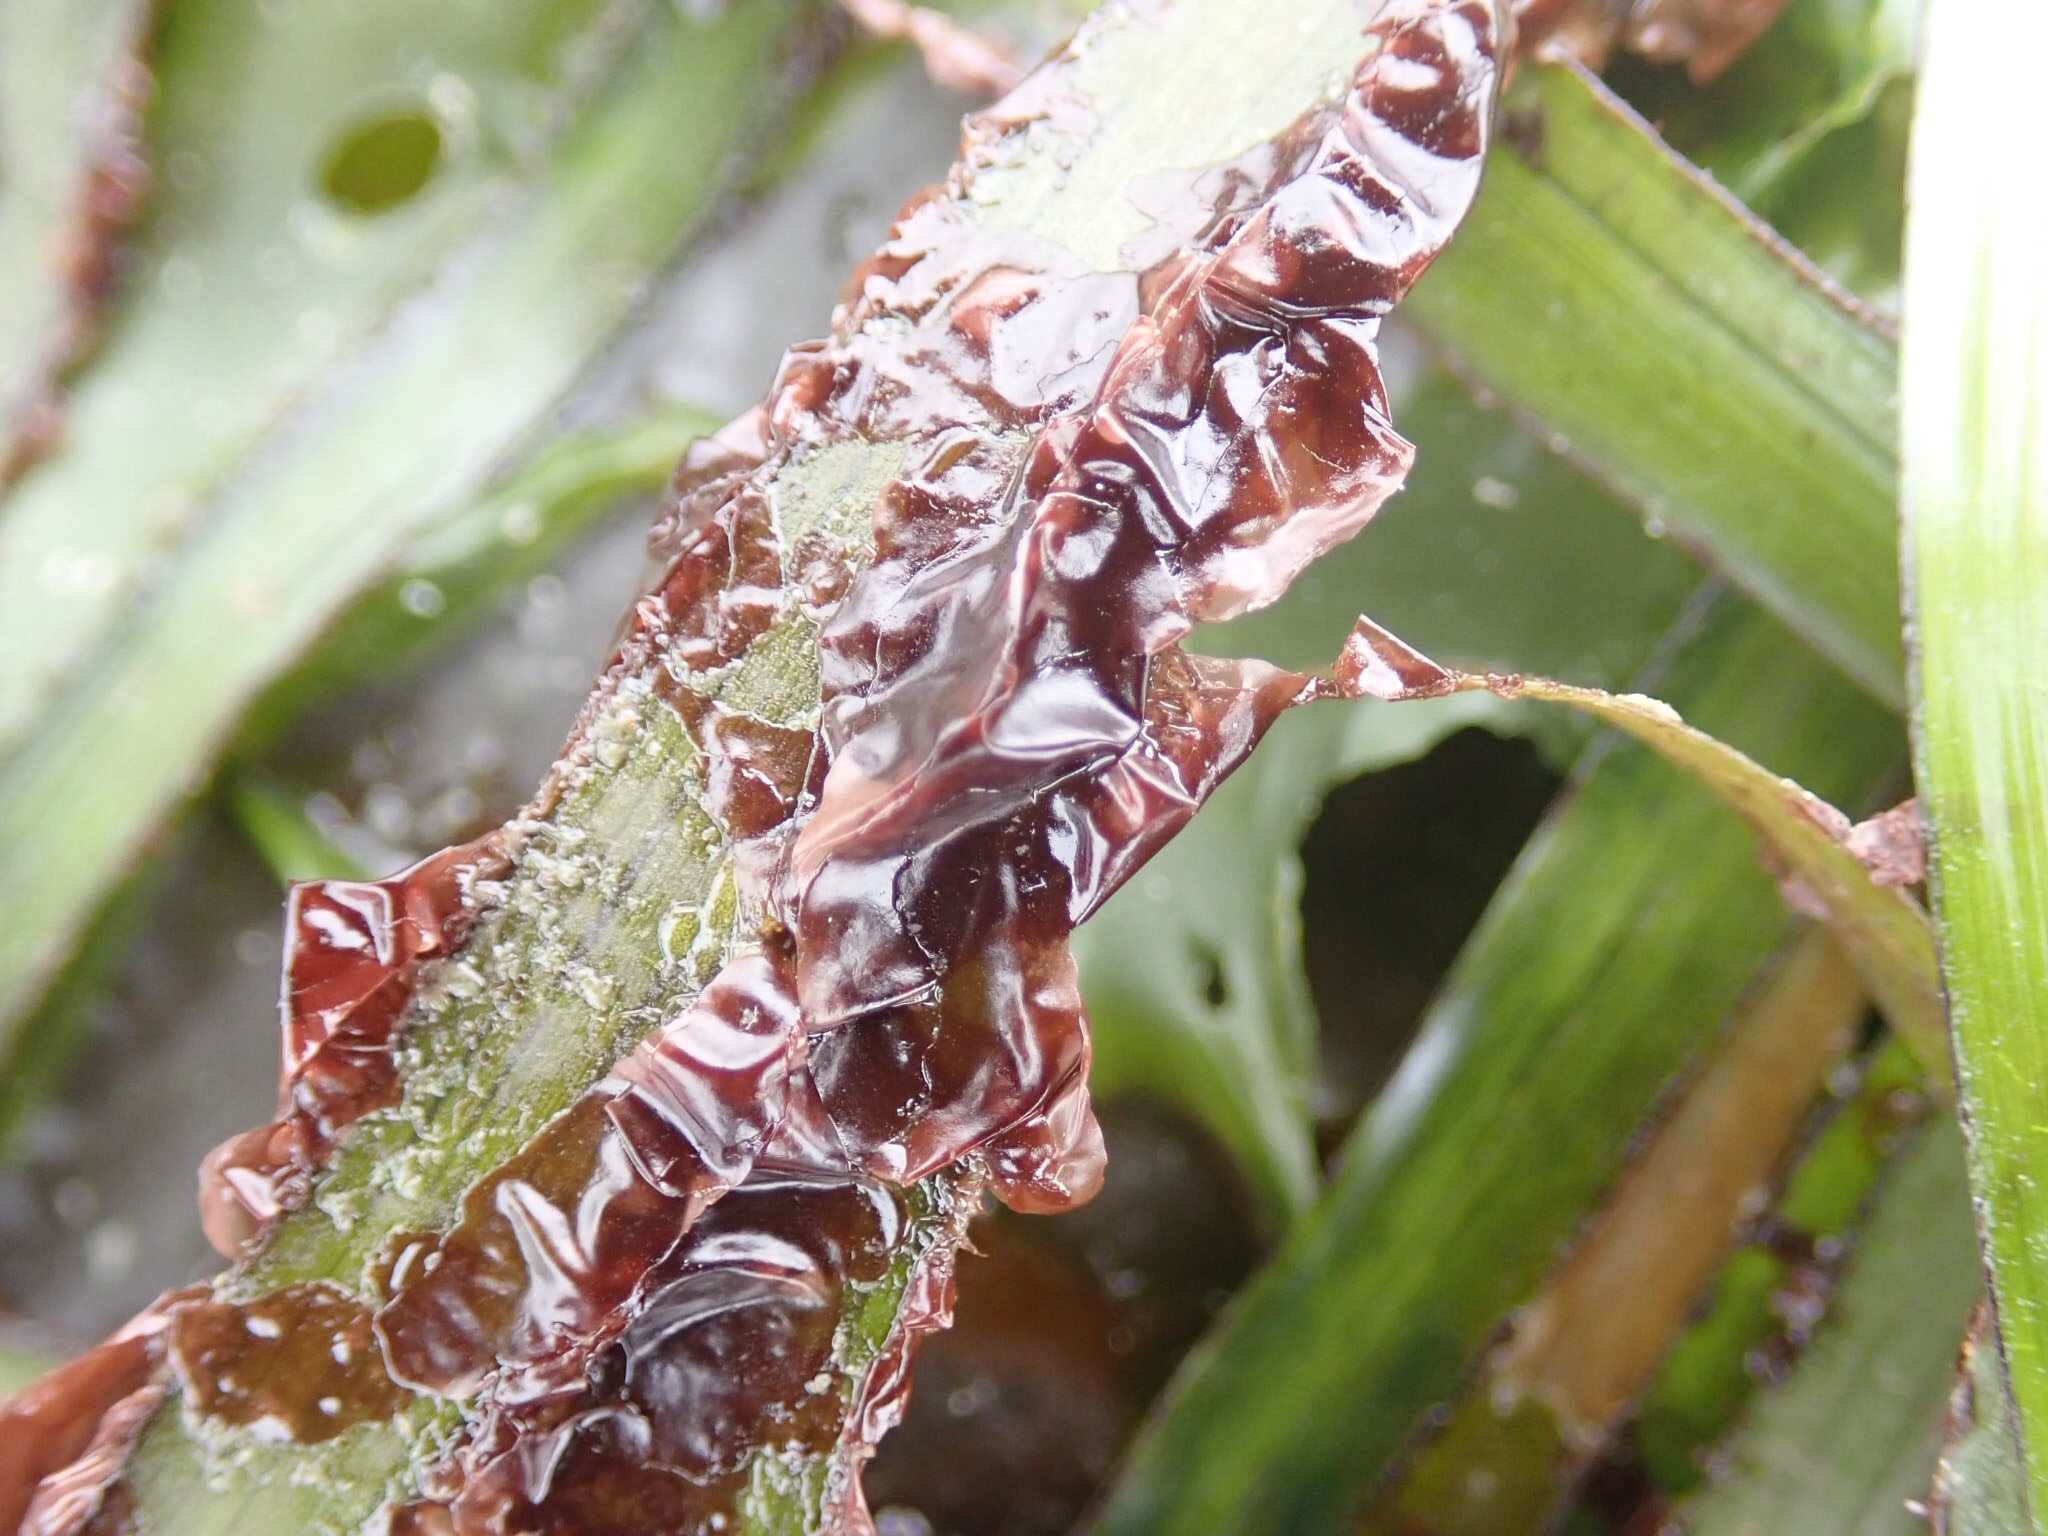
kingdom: Plantae
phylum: Rhodophyta
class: Compsopogonophyceae
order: Erythropeltidales
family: Erythrotrichiaceae
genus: Smithora
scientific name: Smithora naiadum
